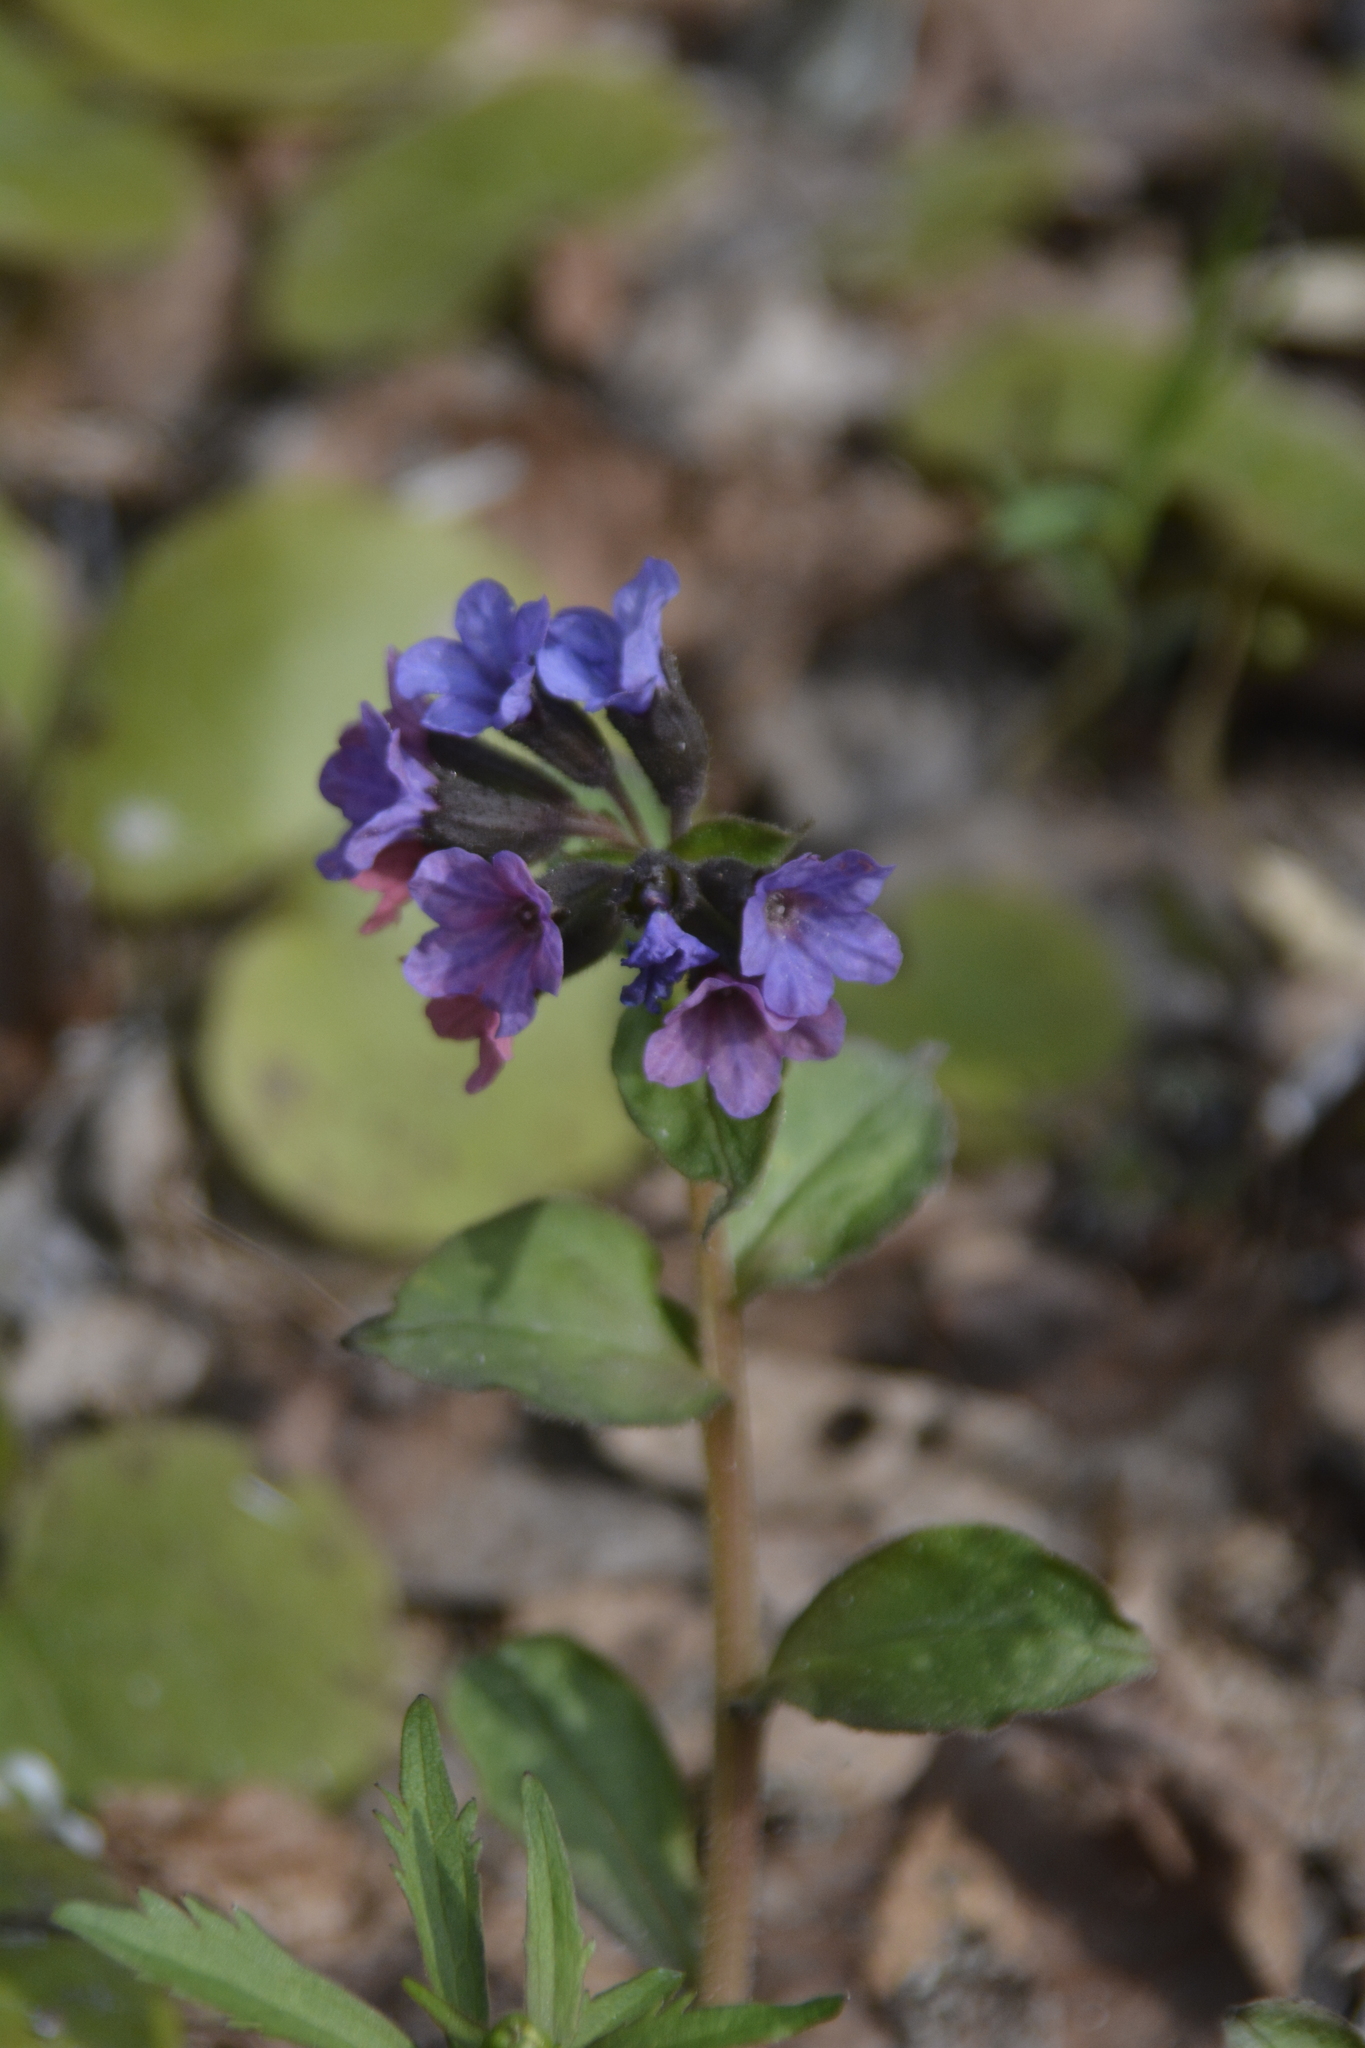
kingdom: Plantae
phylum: Tracheophyta
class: Magnoliopsida
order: Boraginales
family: Boraginaceae
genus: Pulmonaria
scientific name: Pulmonaria obscura
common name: Suffolk lungwort
